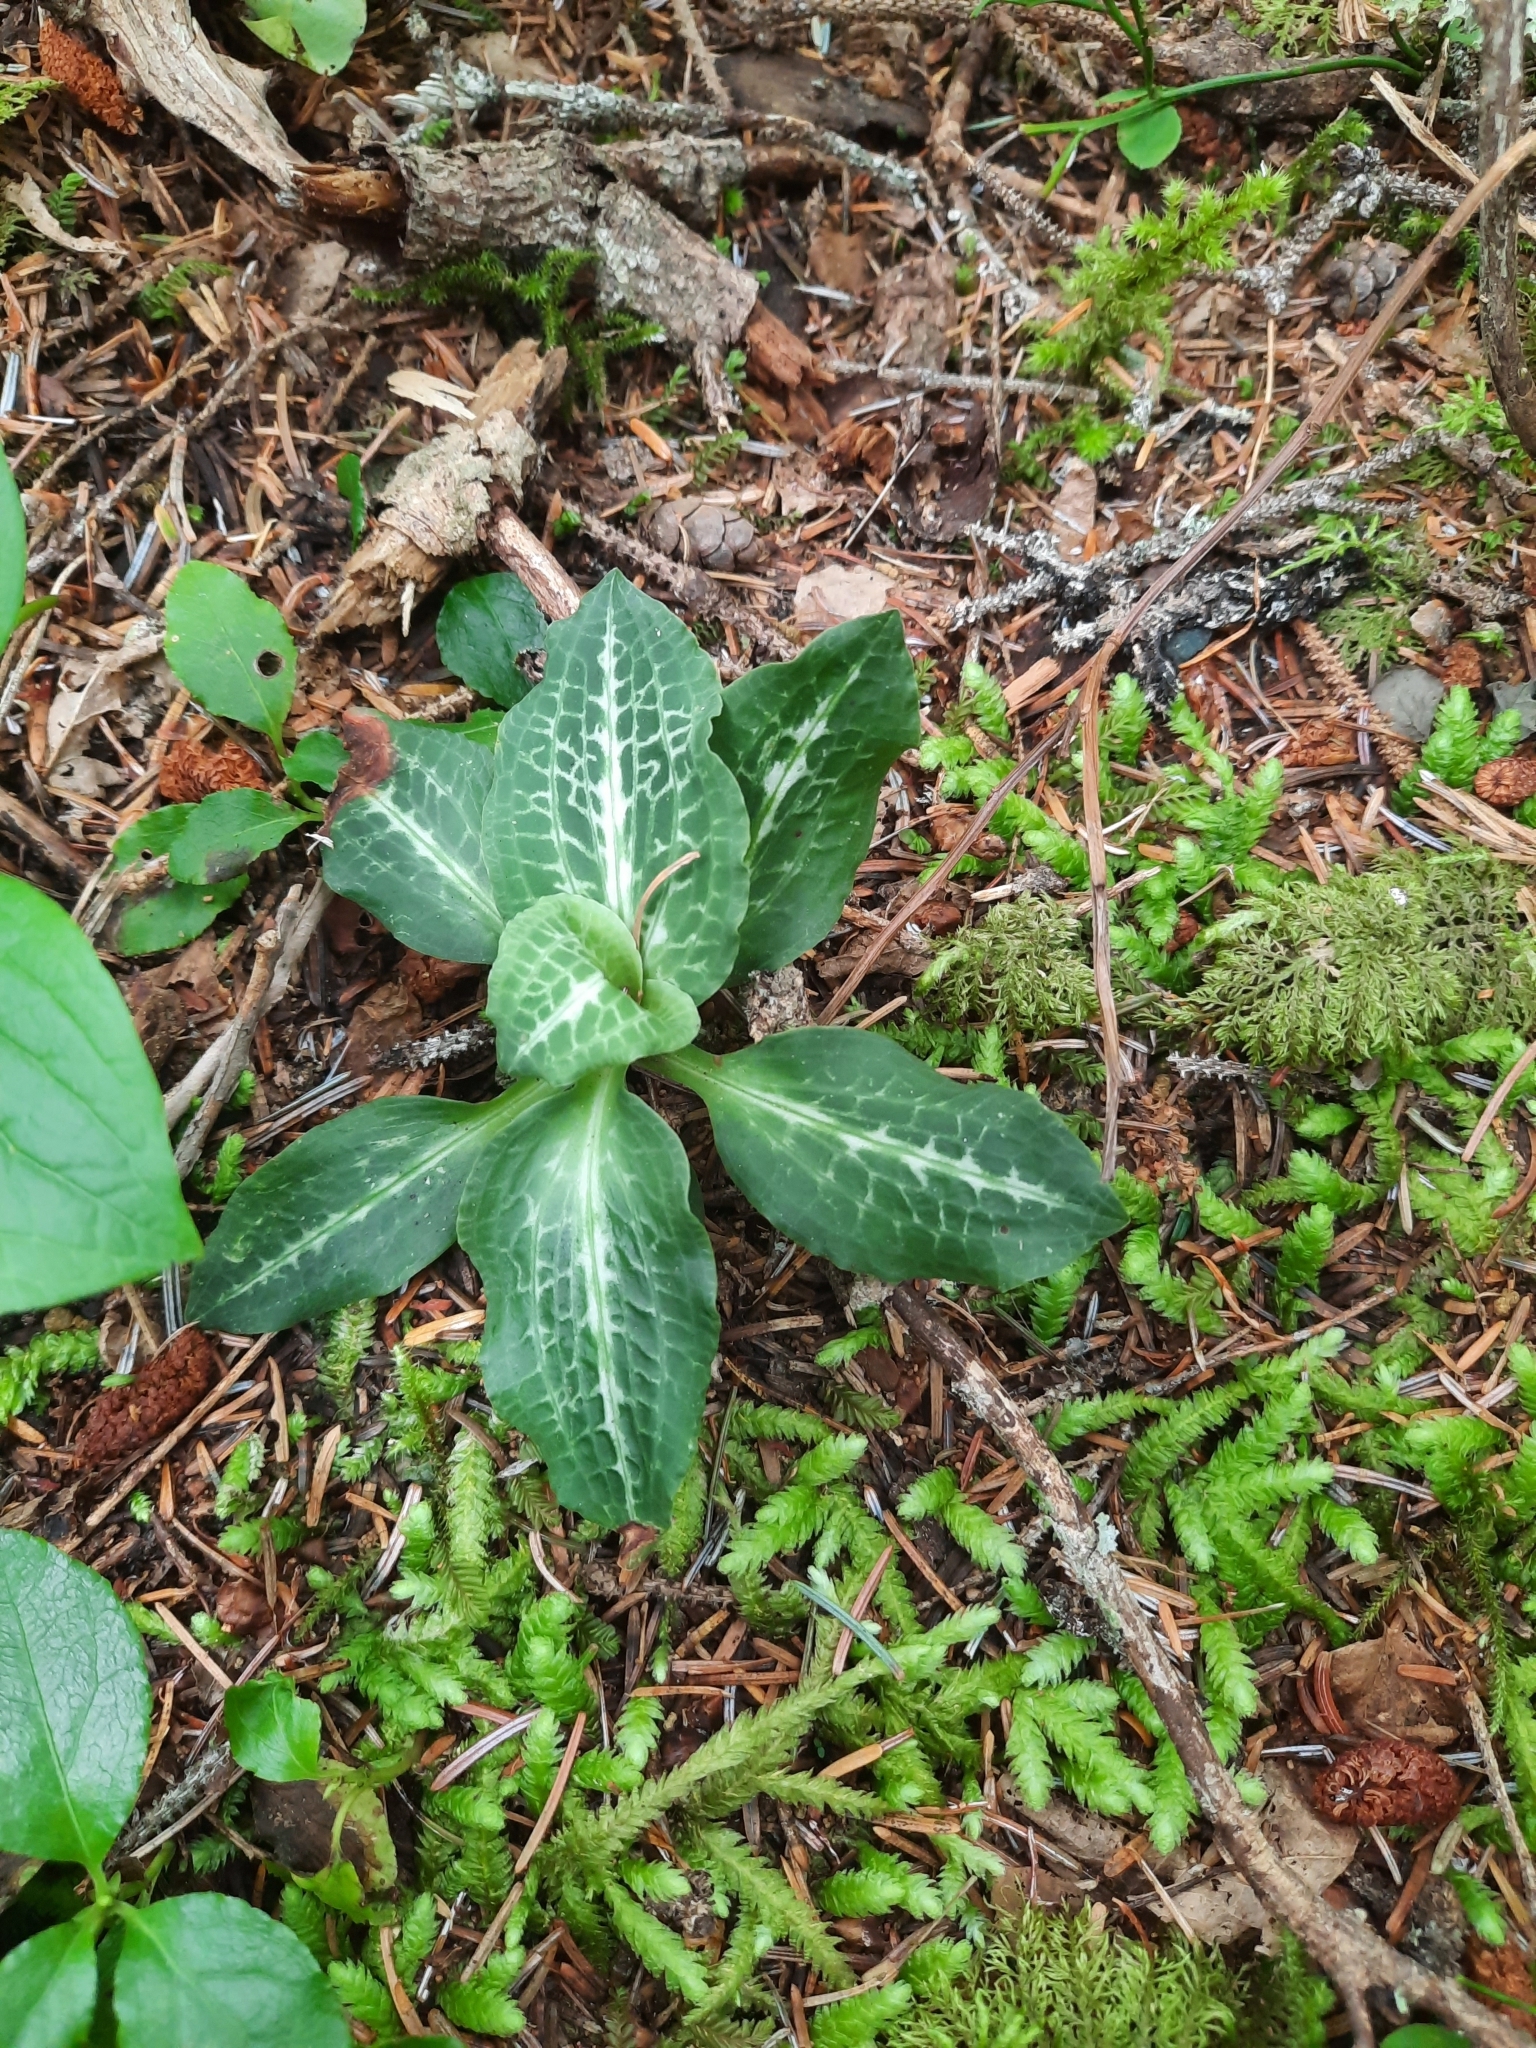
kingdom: Plantae
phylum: Tracheophyta
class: Liliopsida
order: Asparagales
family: Orchidaceae
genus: Goodyera
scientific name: Goodyera oblongifolia
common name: Giant rattlesnake-plantain
